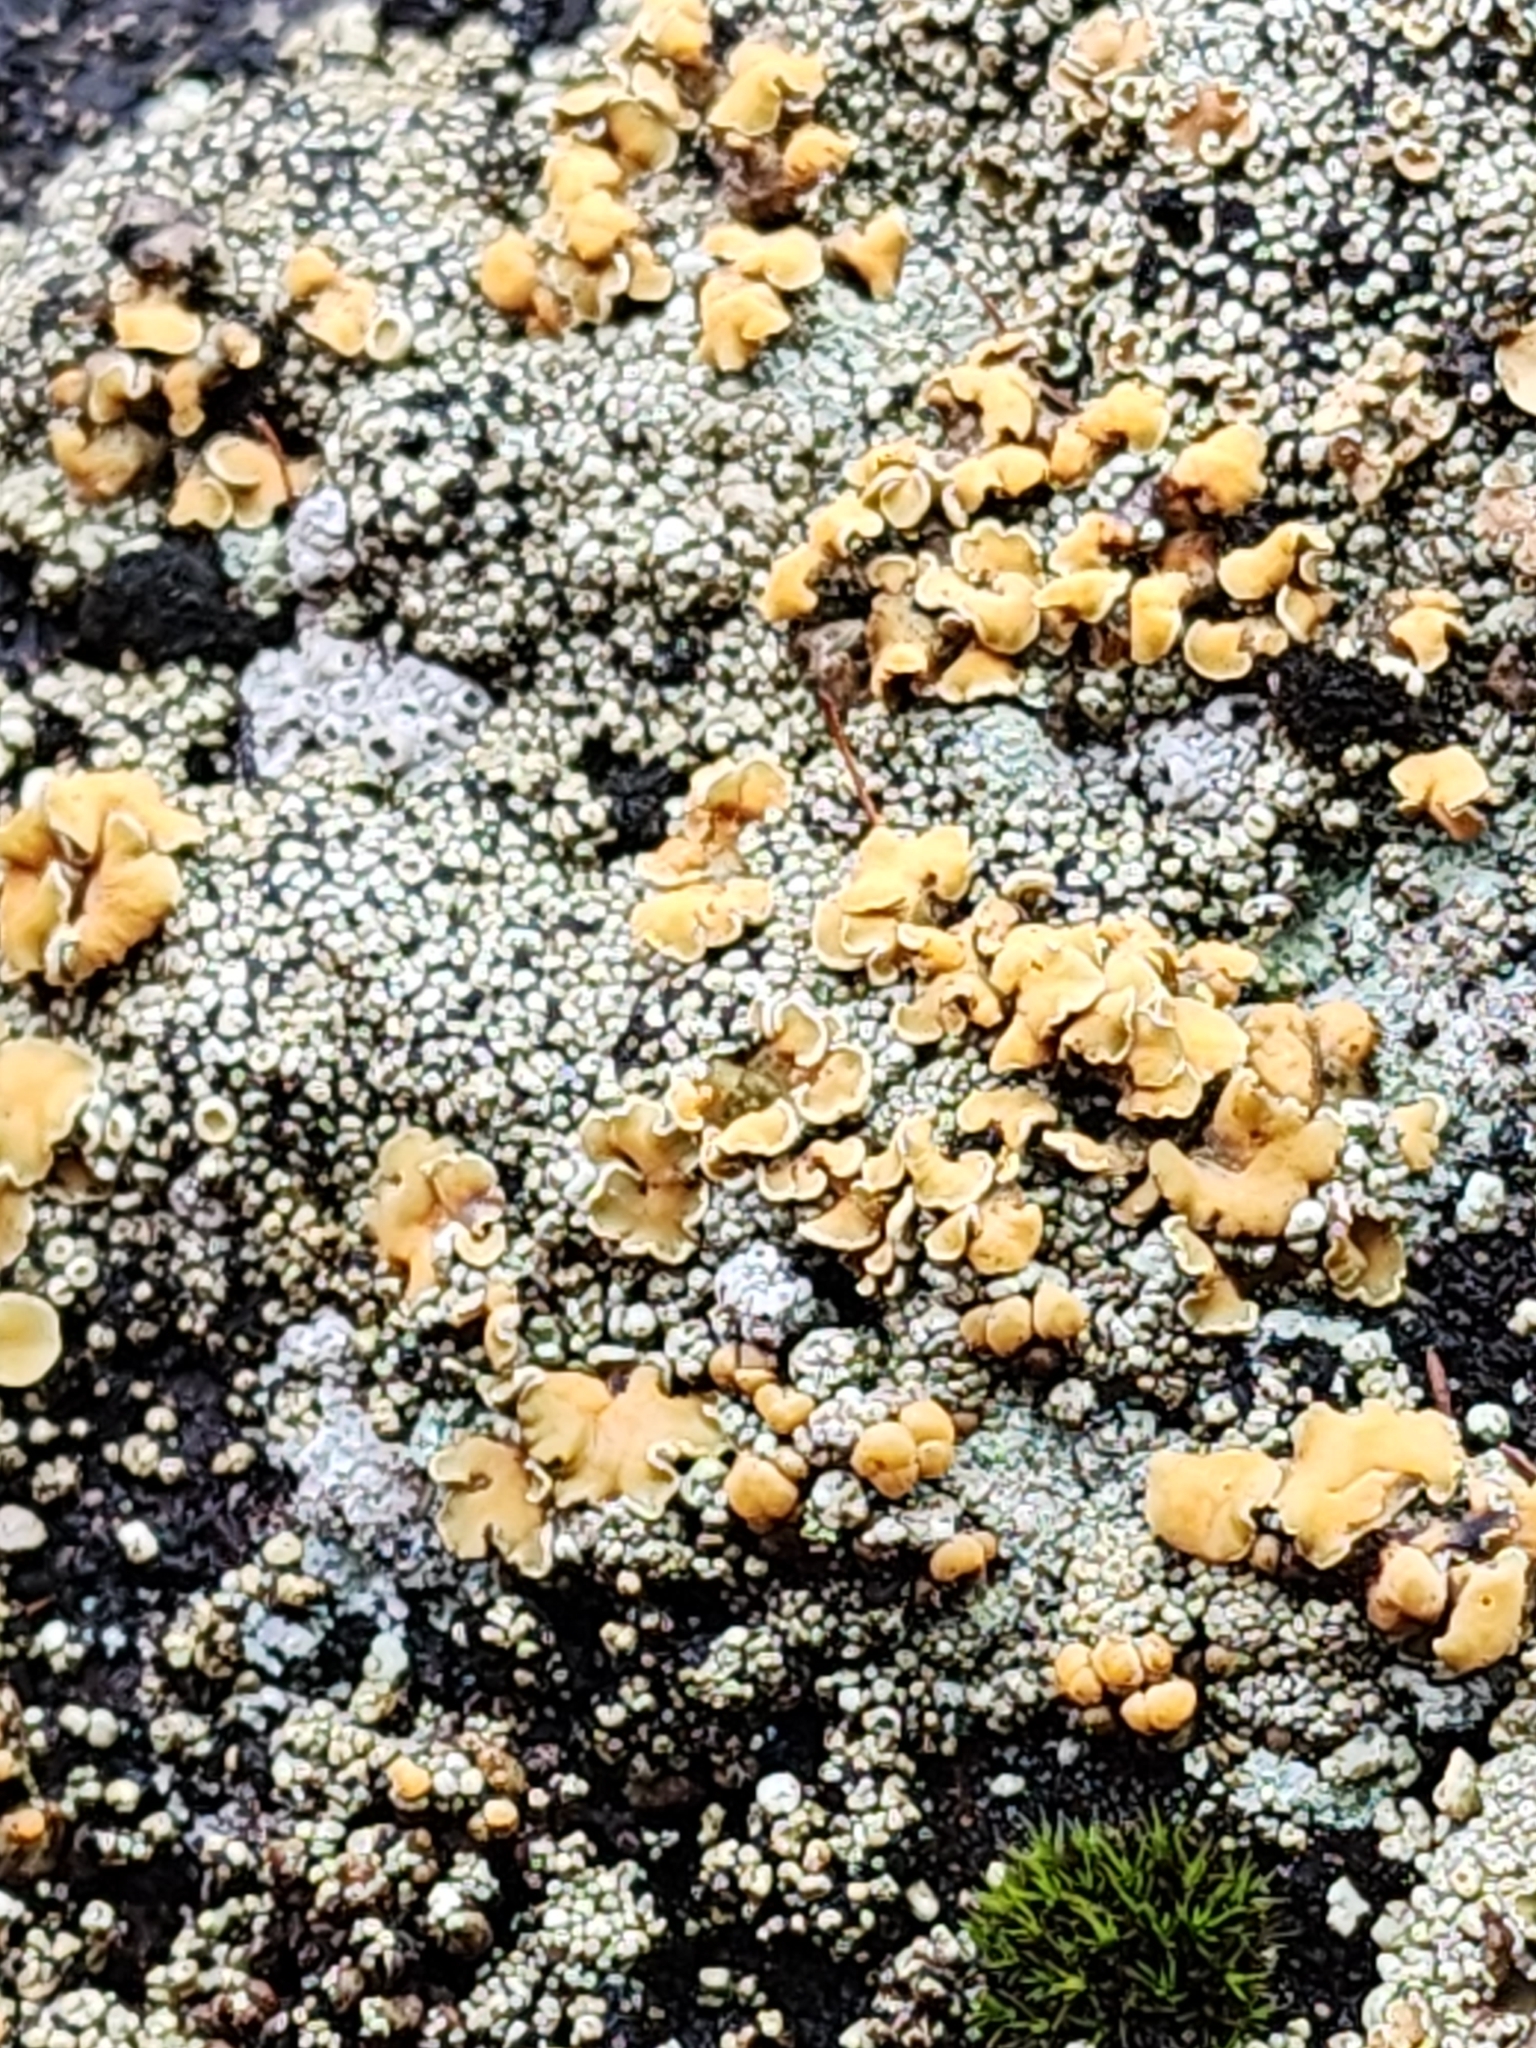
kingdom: Fungi
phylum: Ascomycota
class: Lecanoromycetes
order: Lecanorales
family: Lecanoraceae
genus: Sedelnikovaea
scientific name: Sedelnikovaea subdiscrepans
